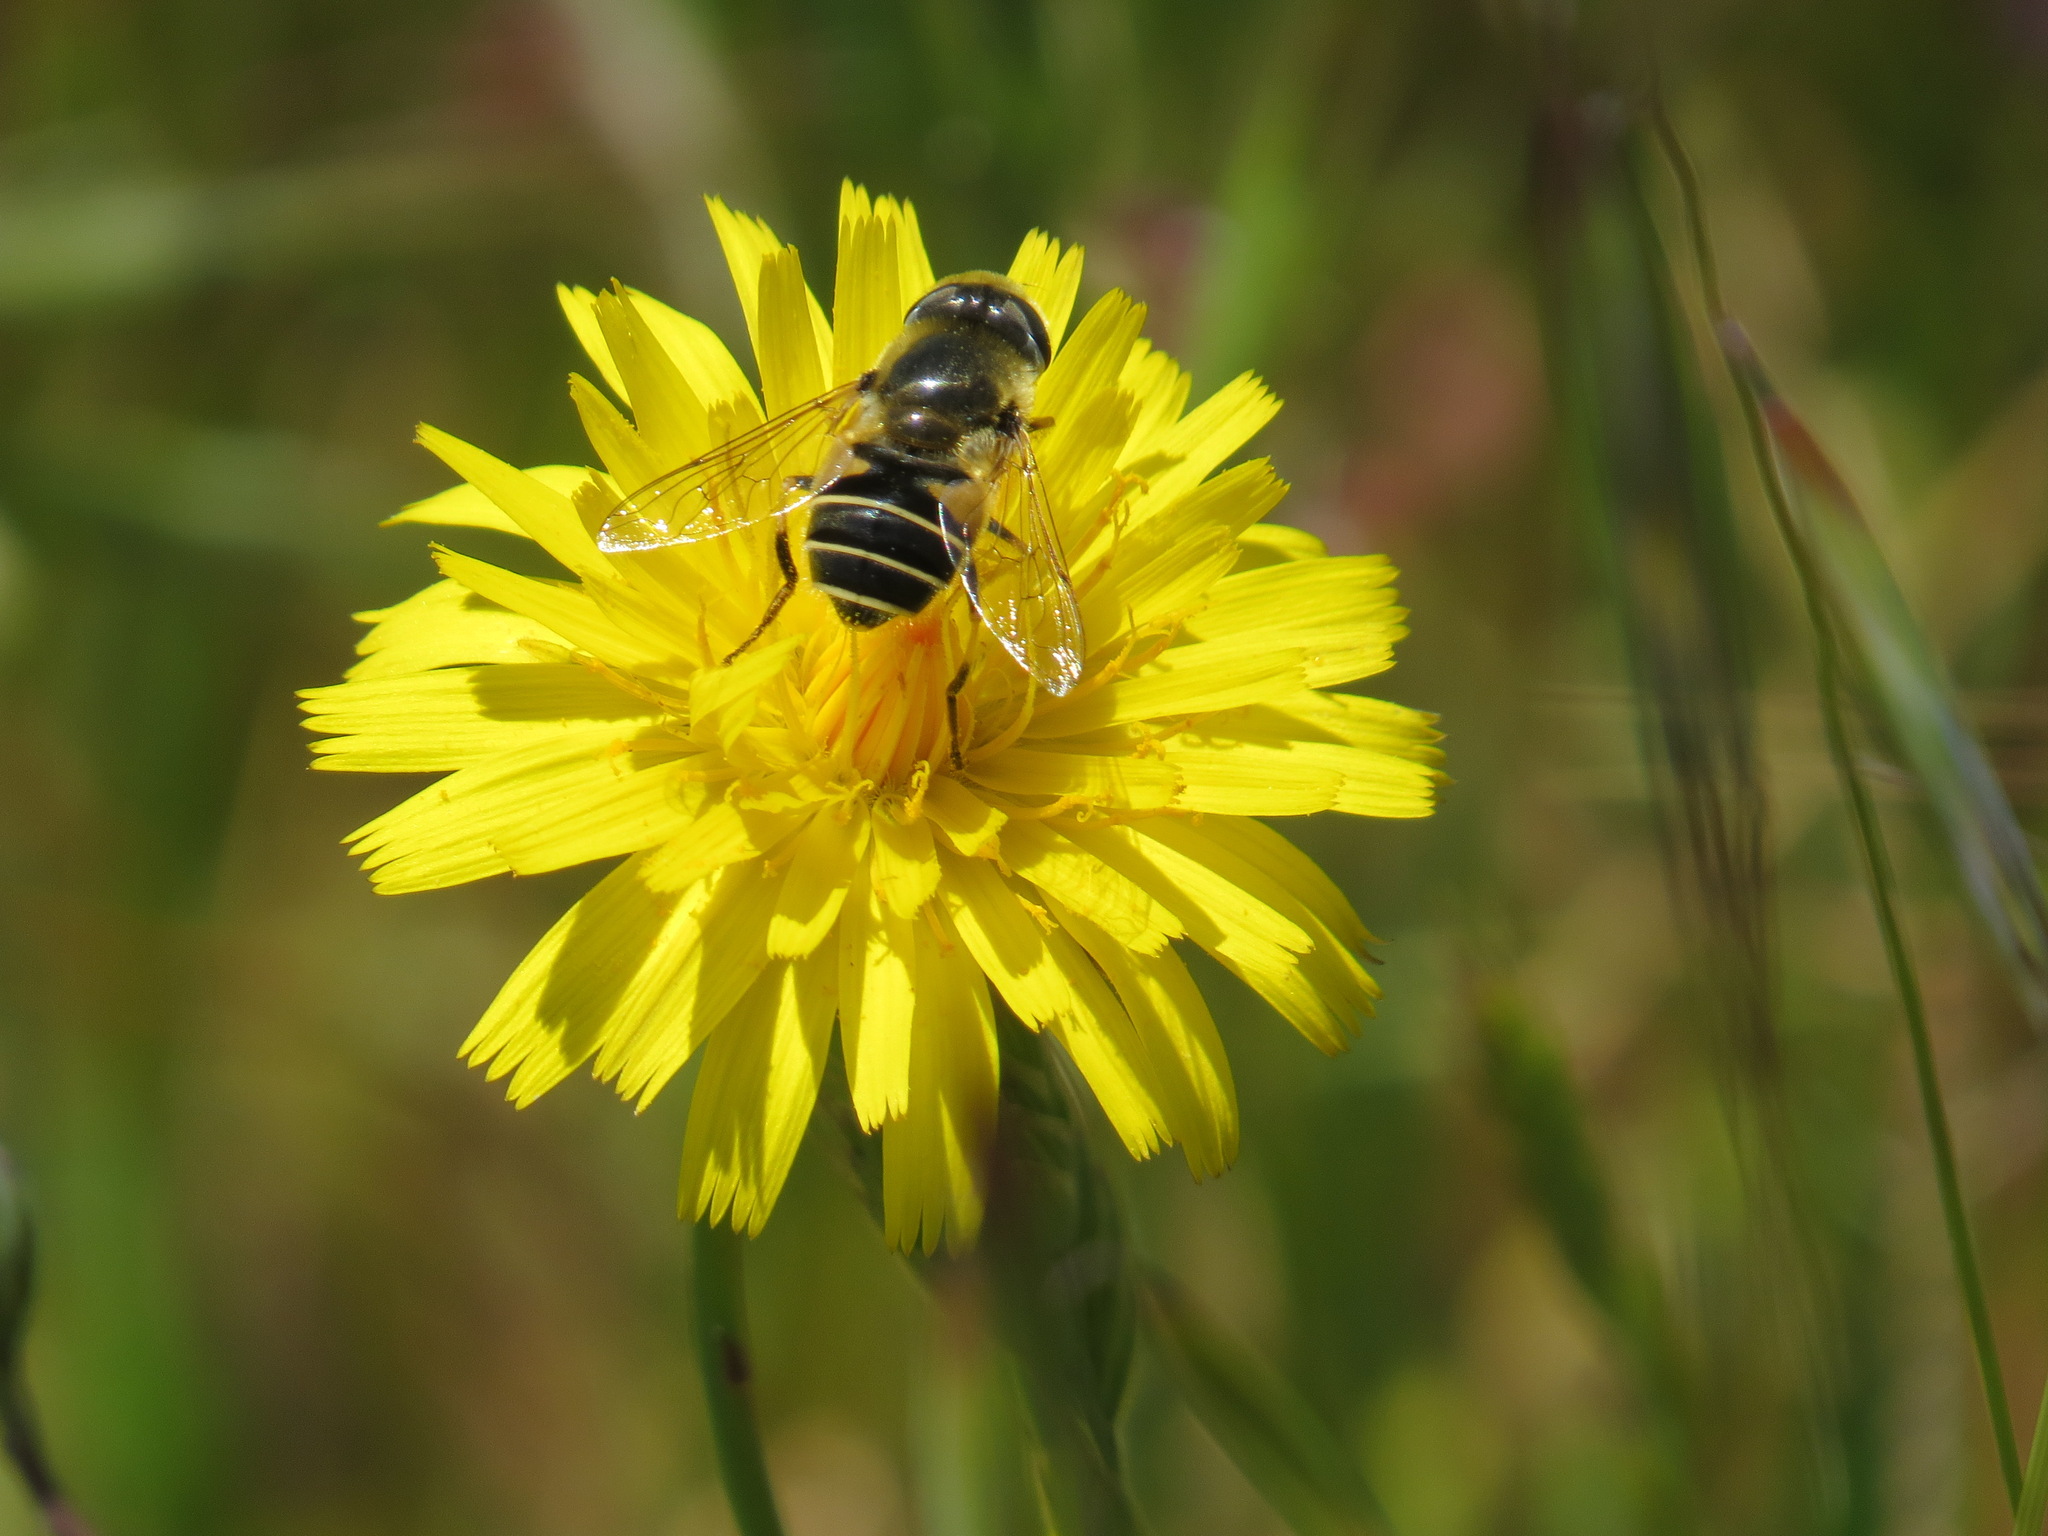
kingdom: Animalia
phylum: Arthropoda
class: Insecta
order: Diptera
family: Syrphidae
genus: Eristalis
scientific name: Eristalis hirta
